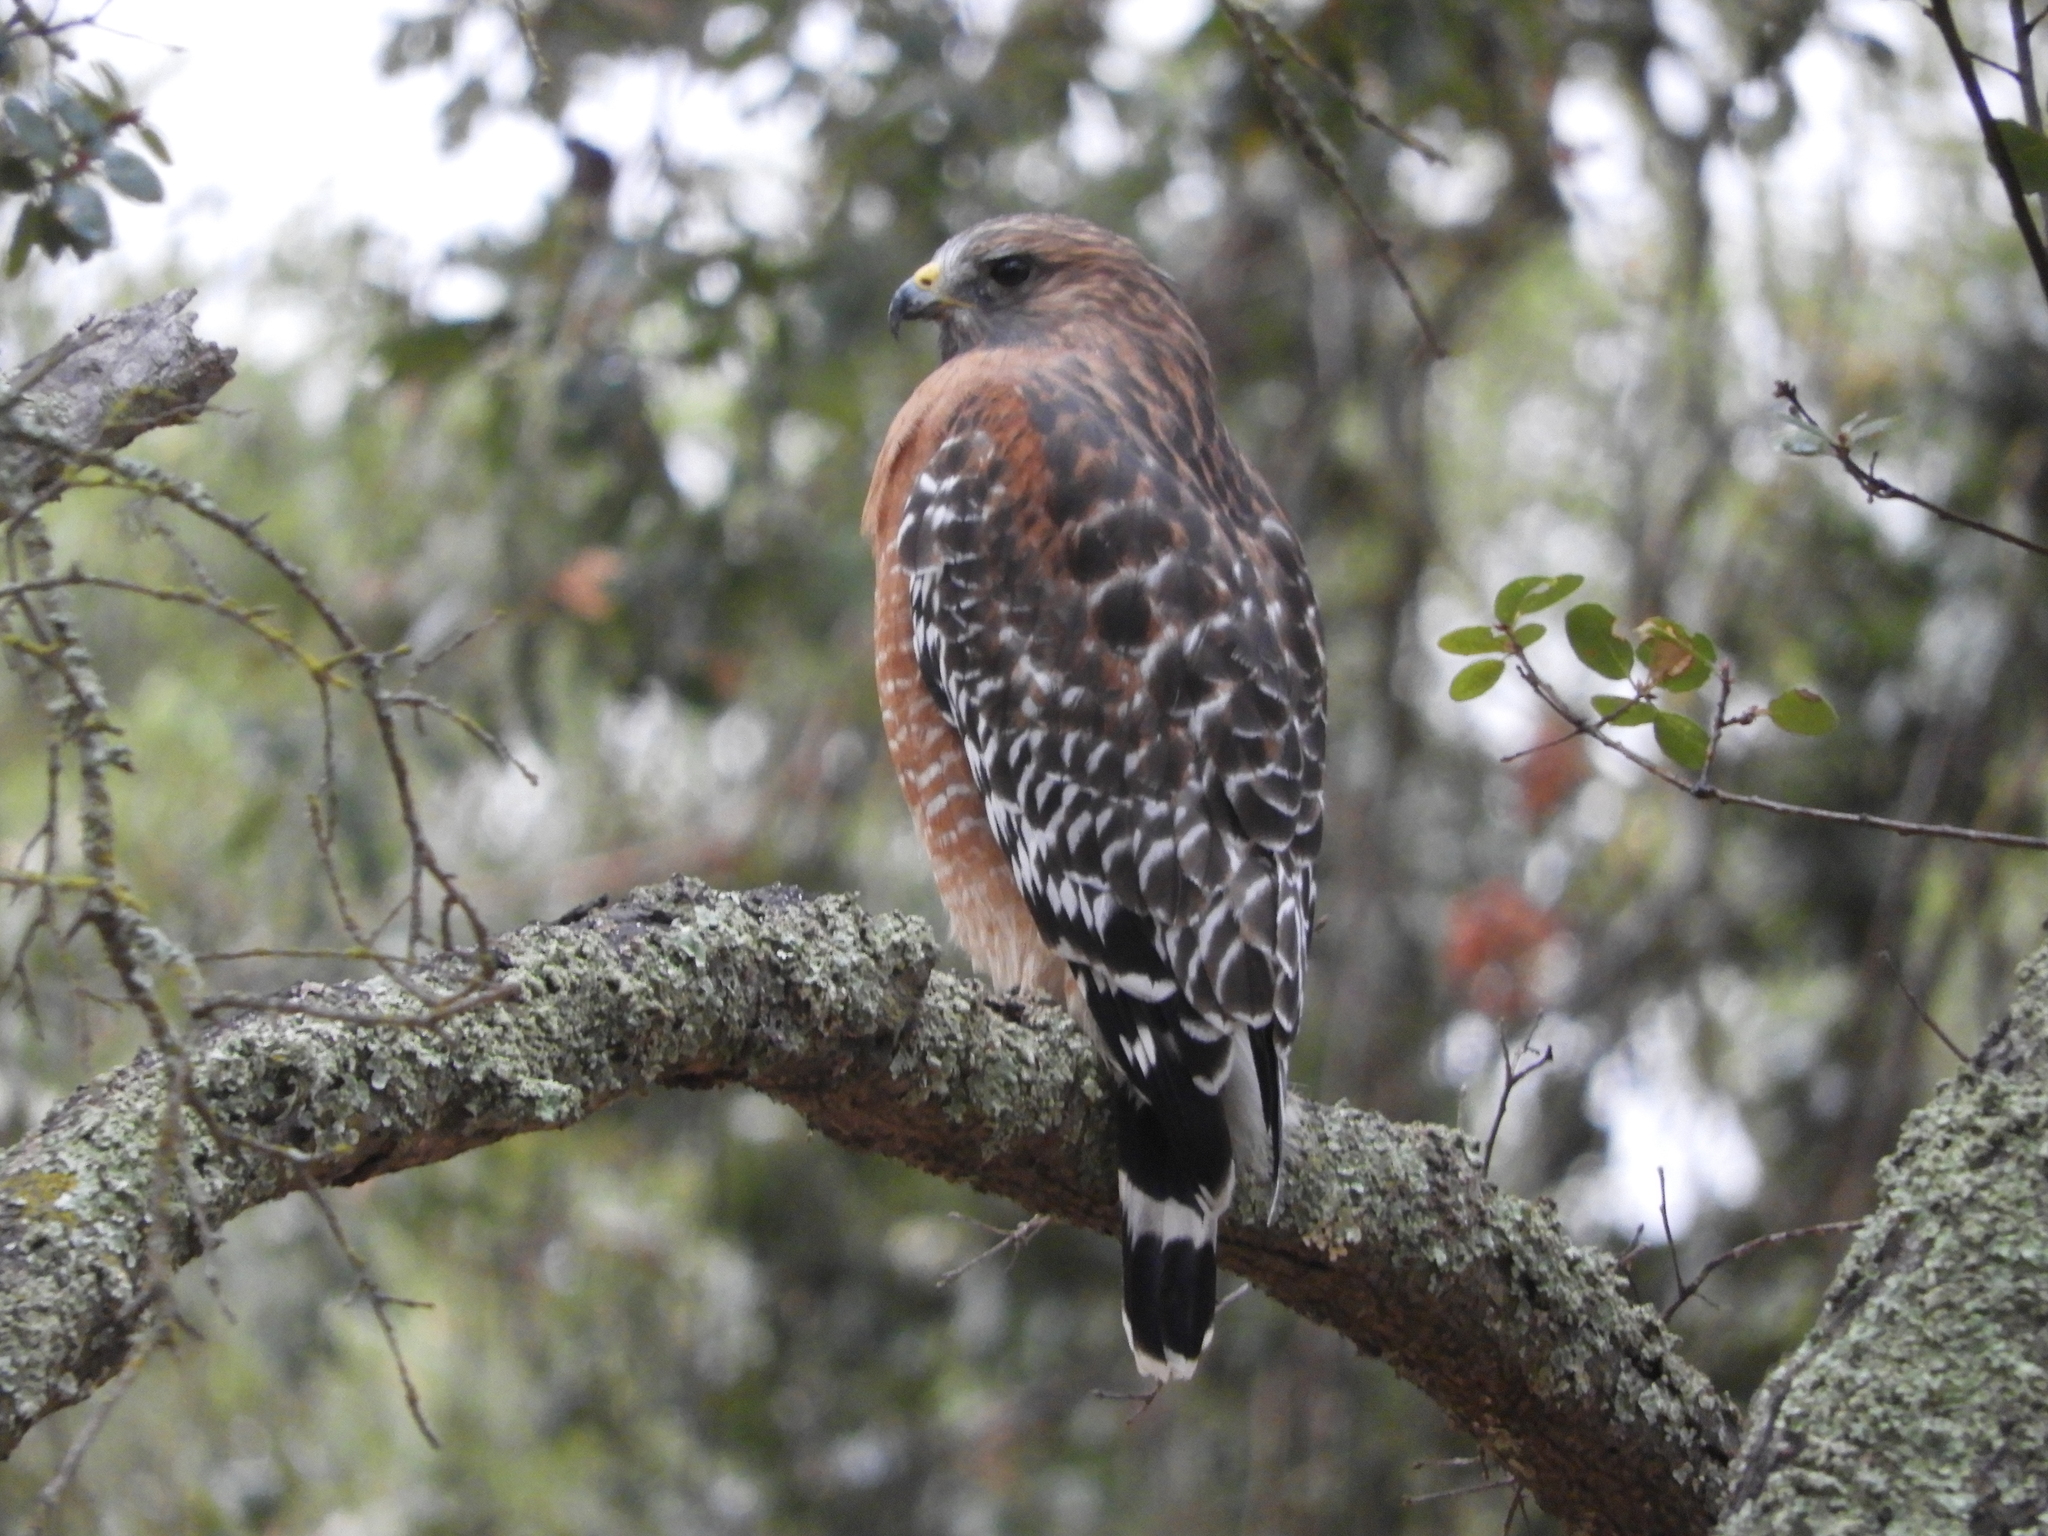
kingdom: Animalia
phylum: Chordata
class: Aves
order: Accipitriformes
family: Accipitridae
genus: Buteo
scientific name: Buteo lineatus
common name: Red-shouldered hawk
